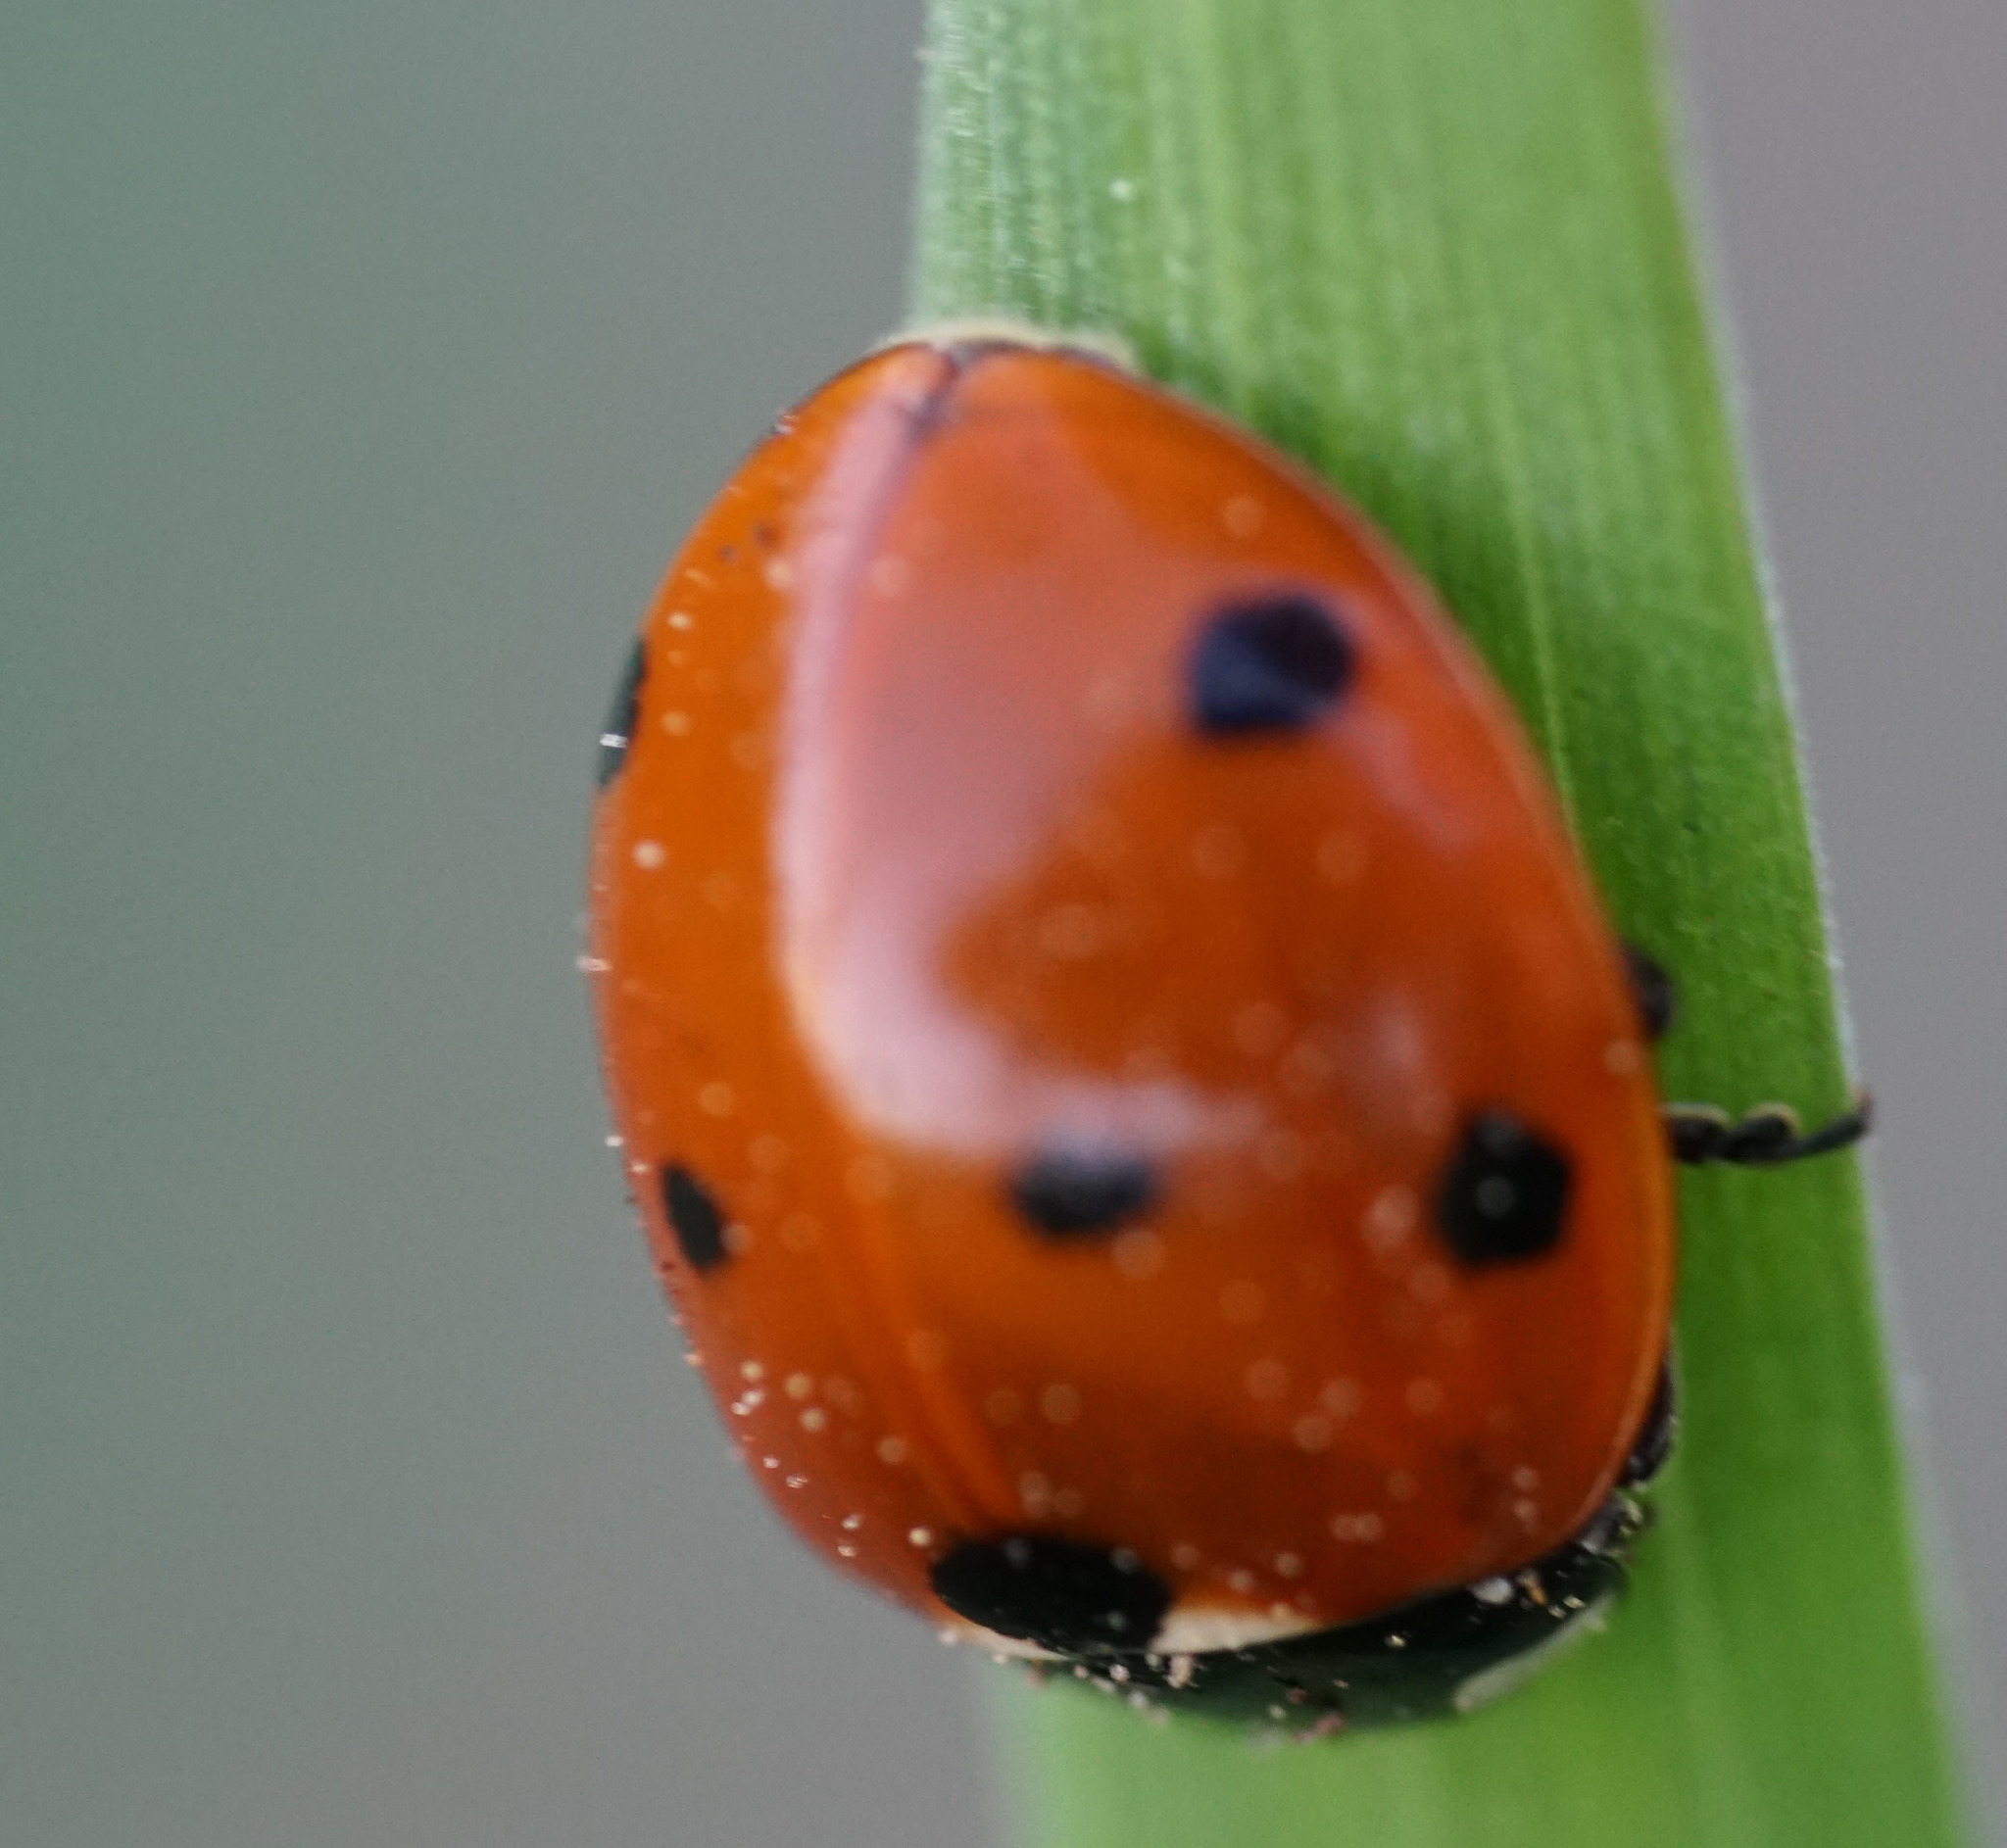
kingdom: Animalia
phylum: Arthropoda
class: Insecta
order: Coleoptera
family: Coccinellidae
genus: Coccinella
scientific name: Coccinella septempunctata
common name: Sevenspotted lady beetle
